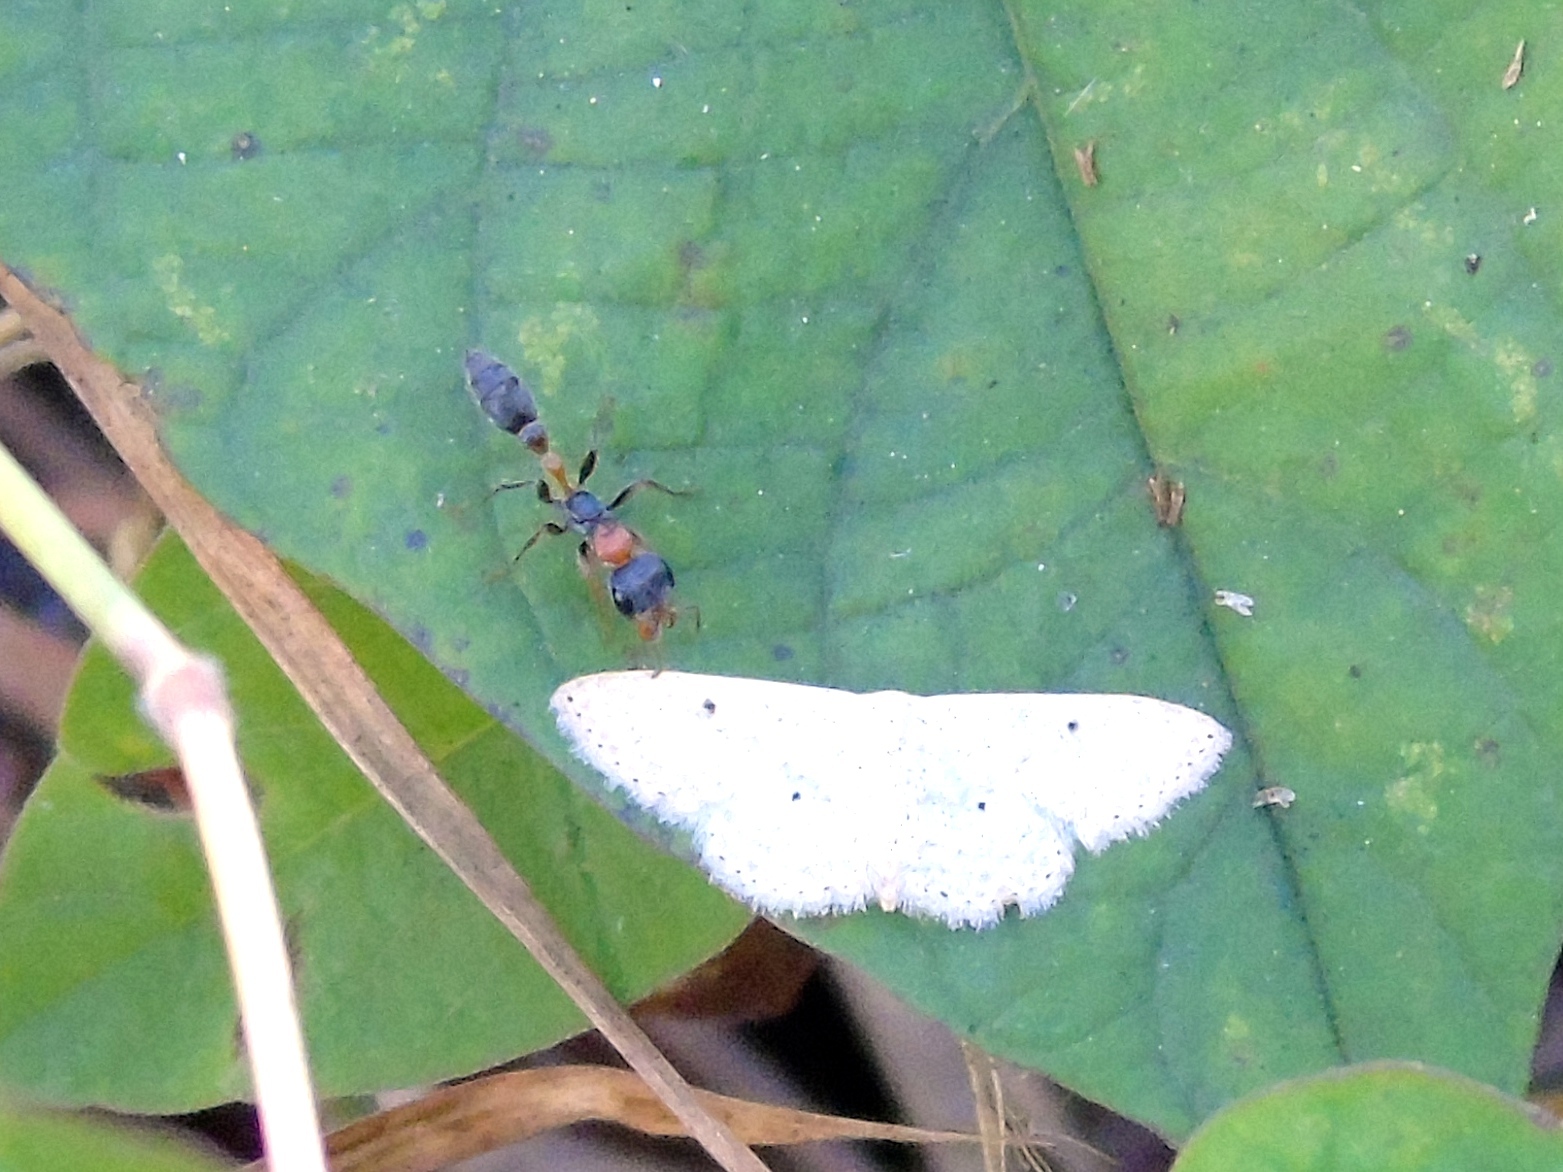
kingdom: Animalia
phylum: Arthropoda
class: Insecta
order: Hymenoptera
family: Formicidae
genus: Pseudomyrmex
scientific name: Pseudomyrmex gracilis
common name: Graceful twig ant
